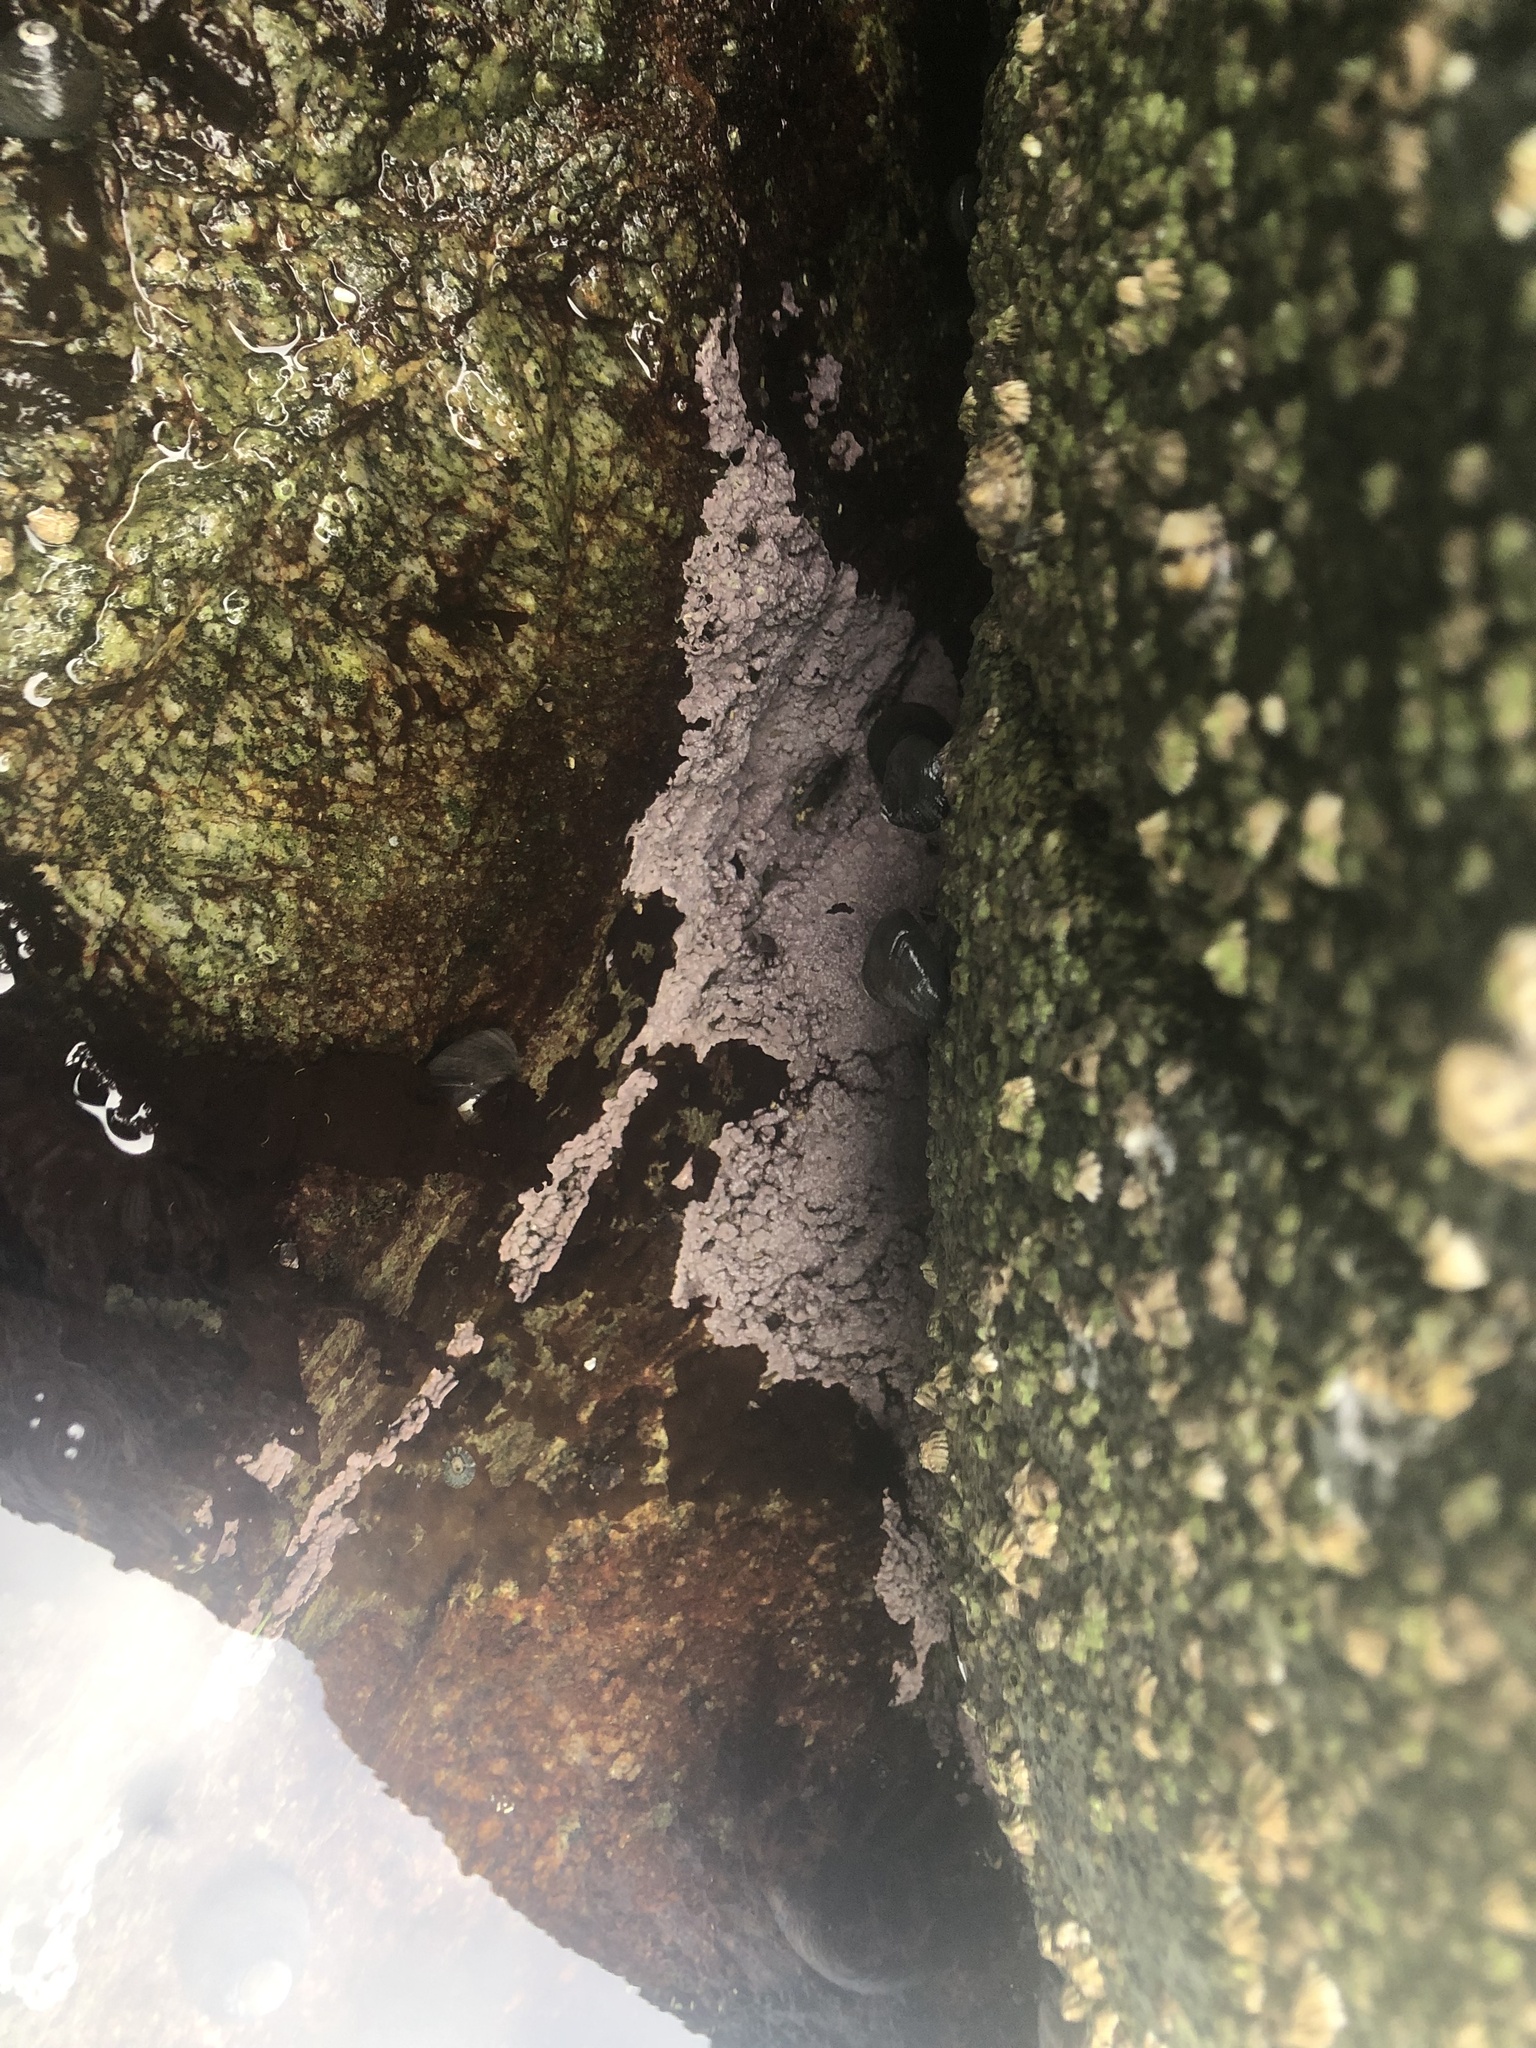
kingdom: Plantae
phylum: Rhodophyta
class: Florideophyceae
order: Corallinales
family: Corallinaceae
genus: Chamberlainium
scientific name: Chamberlainium tumidum
